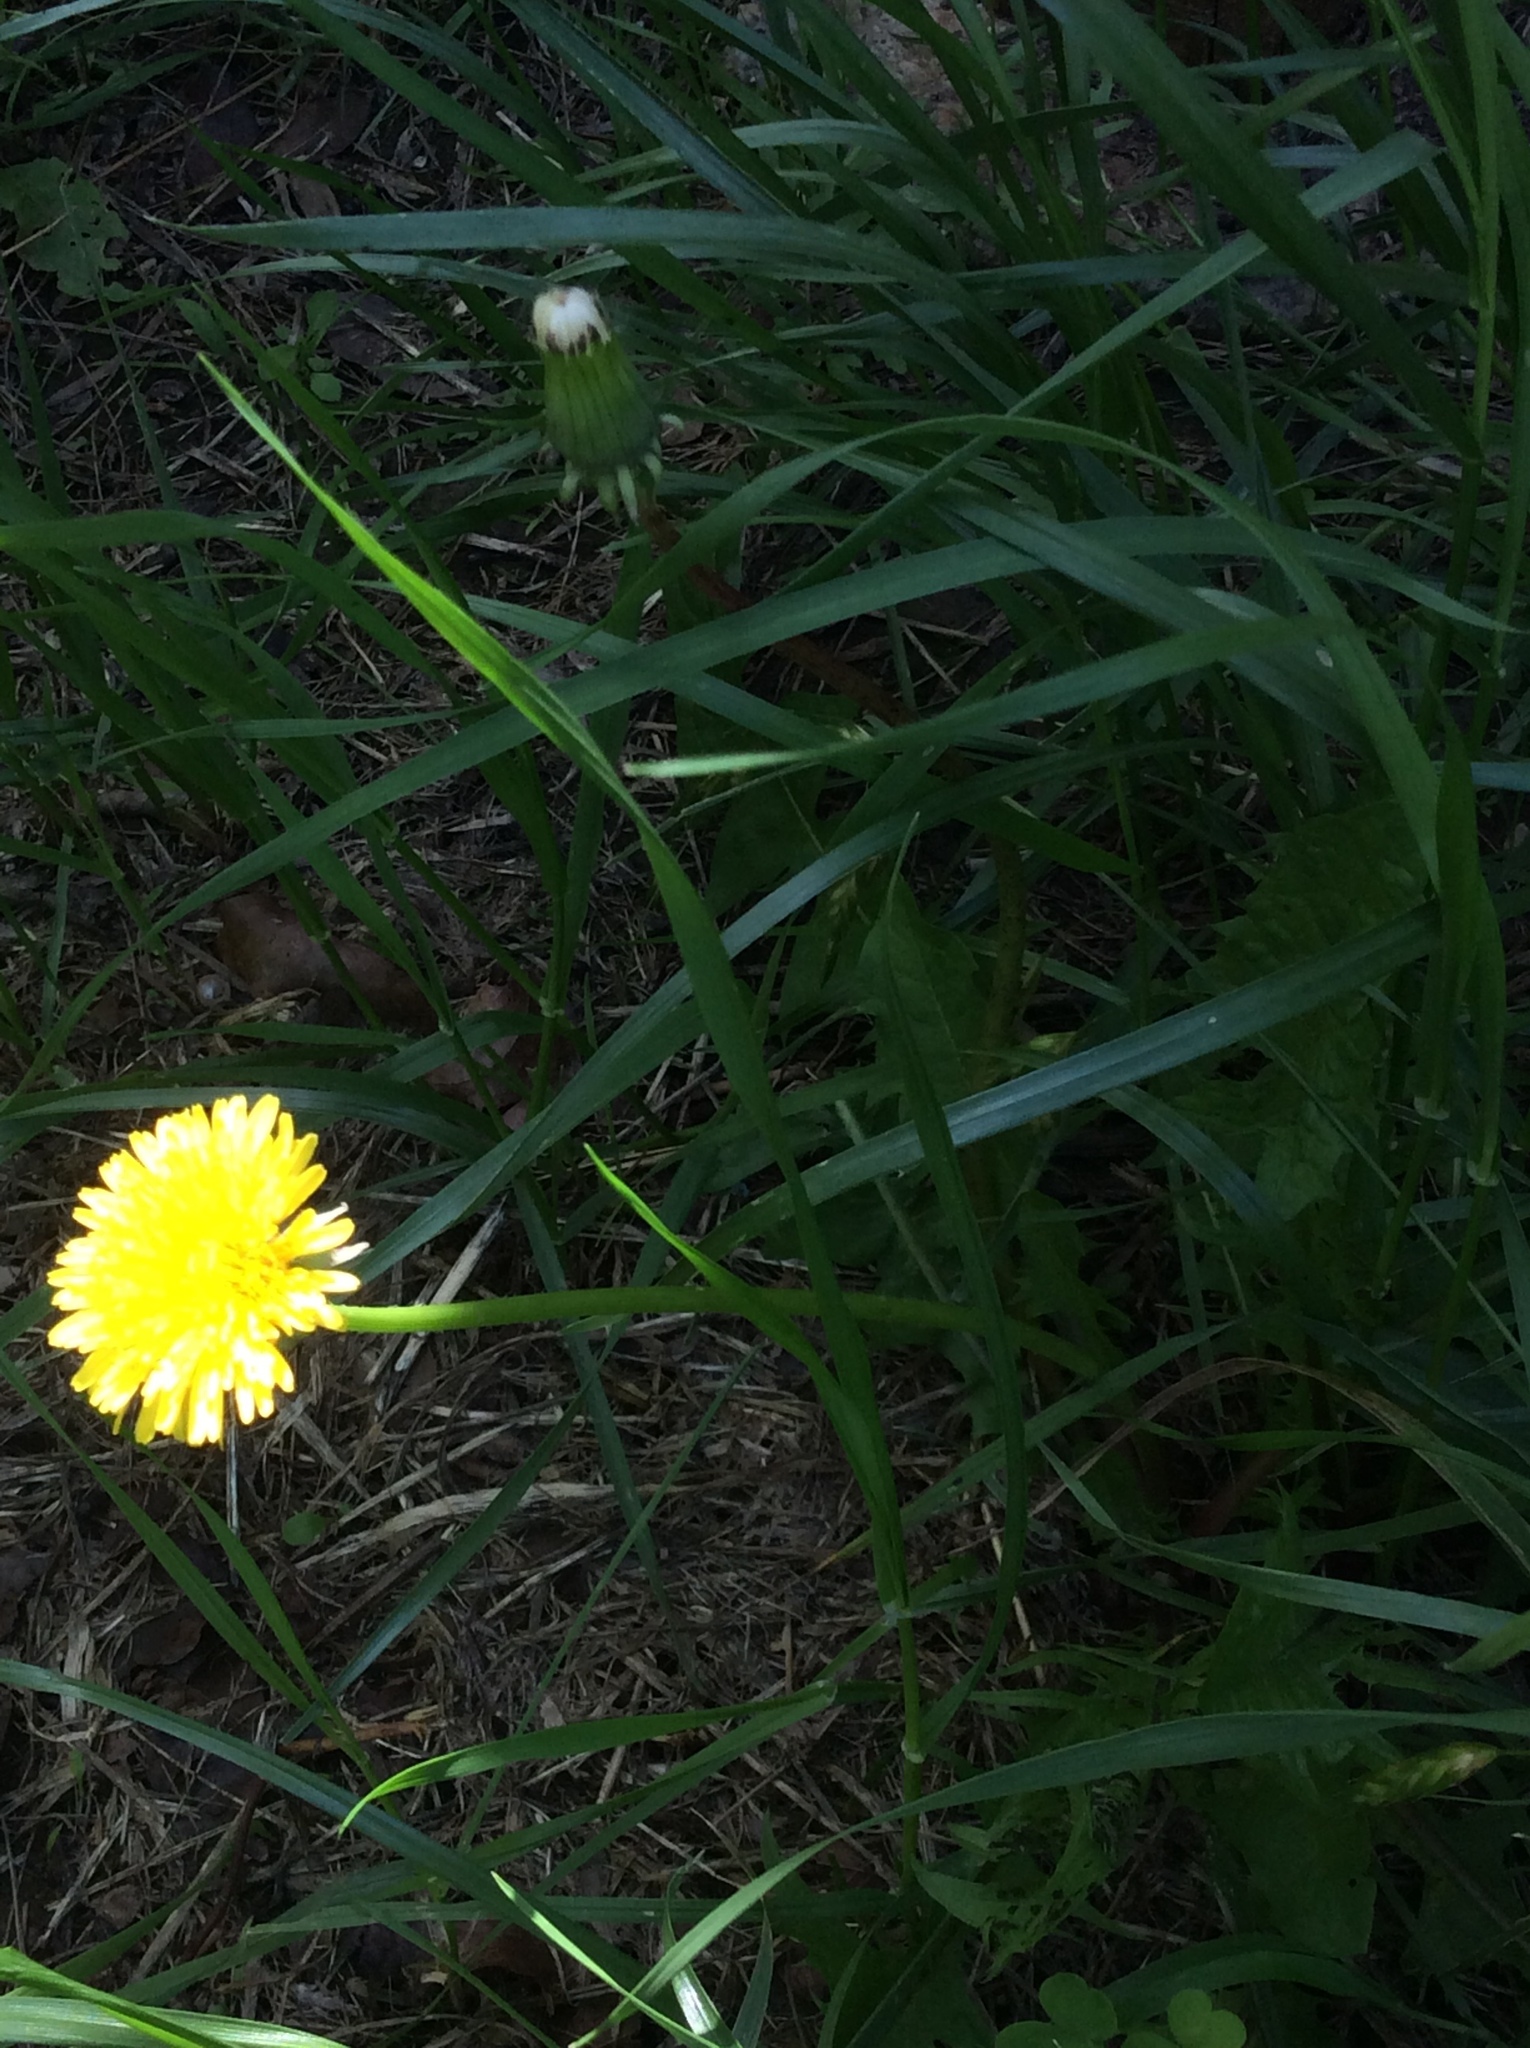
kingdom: Plantae
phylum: Tracheophyta
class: Magnoliopsida
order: Asterales
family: Asteraceae
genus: Taraxacum
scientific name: Taraxacum officinale
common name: Common dandelion
